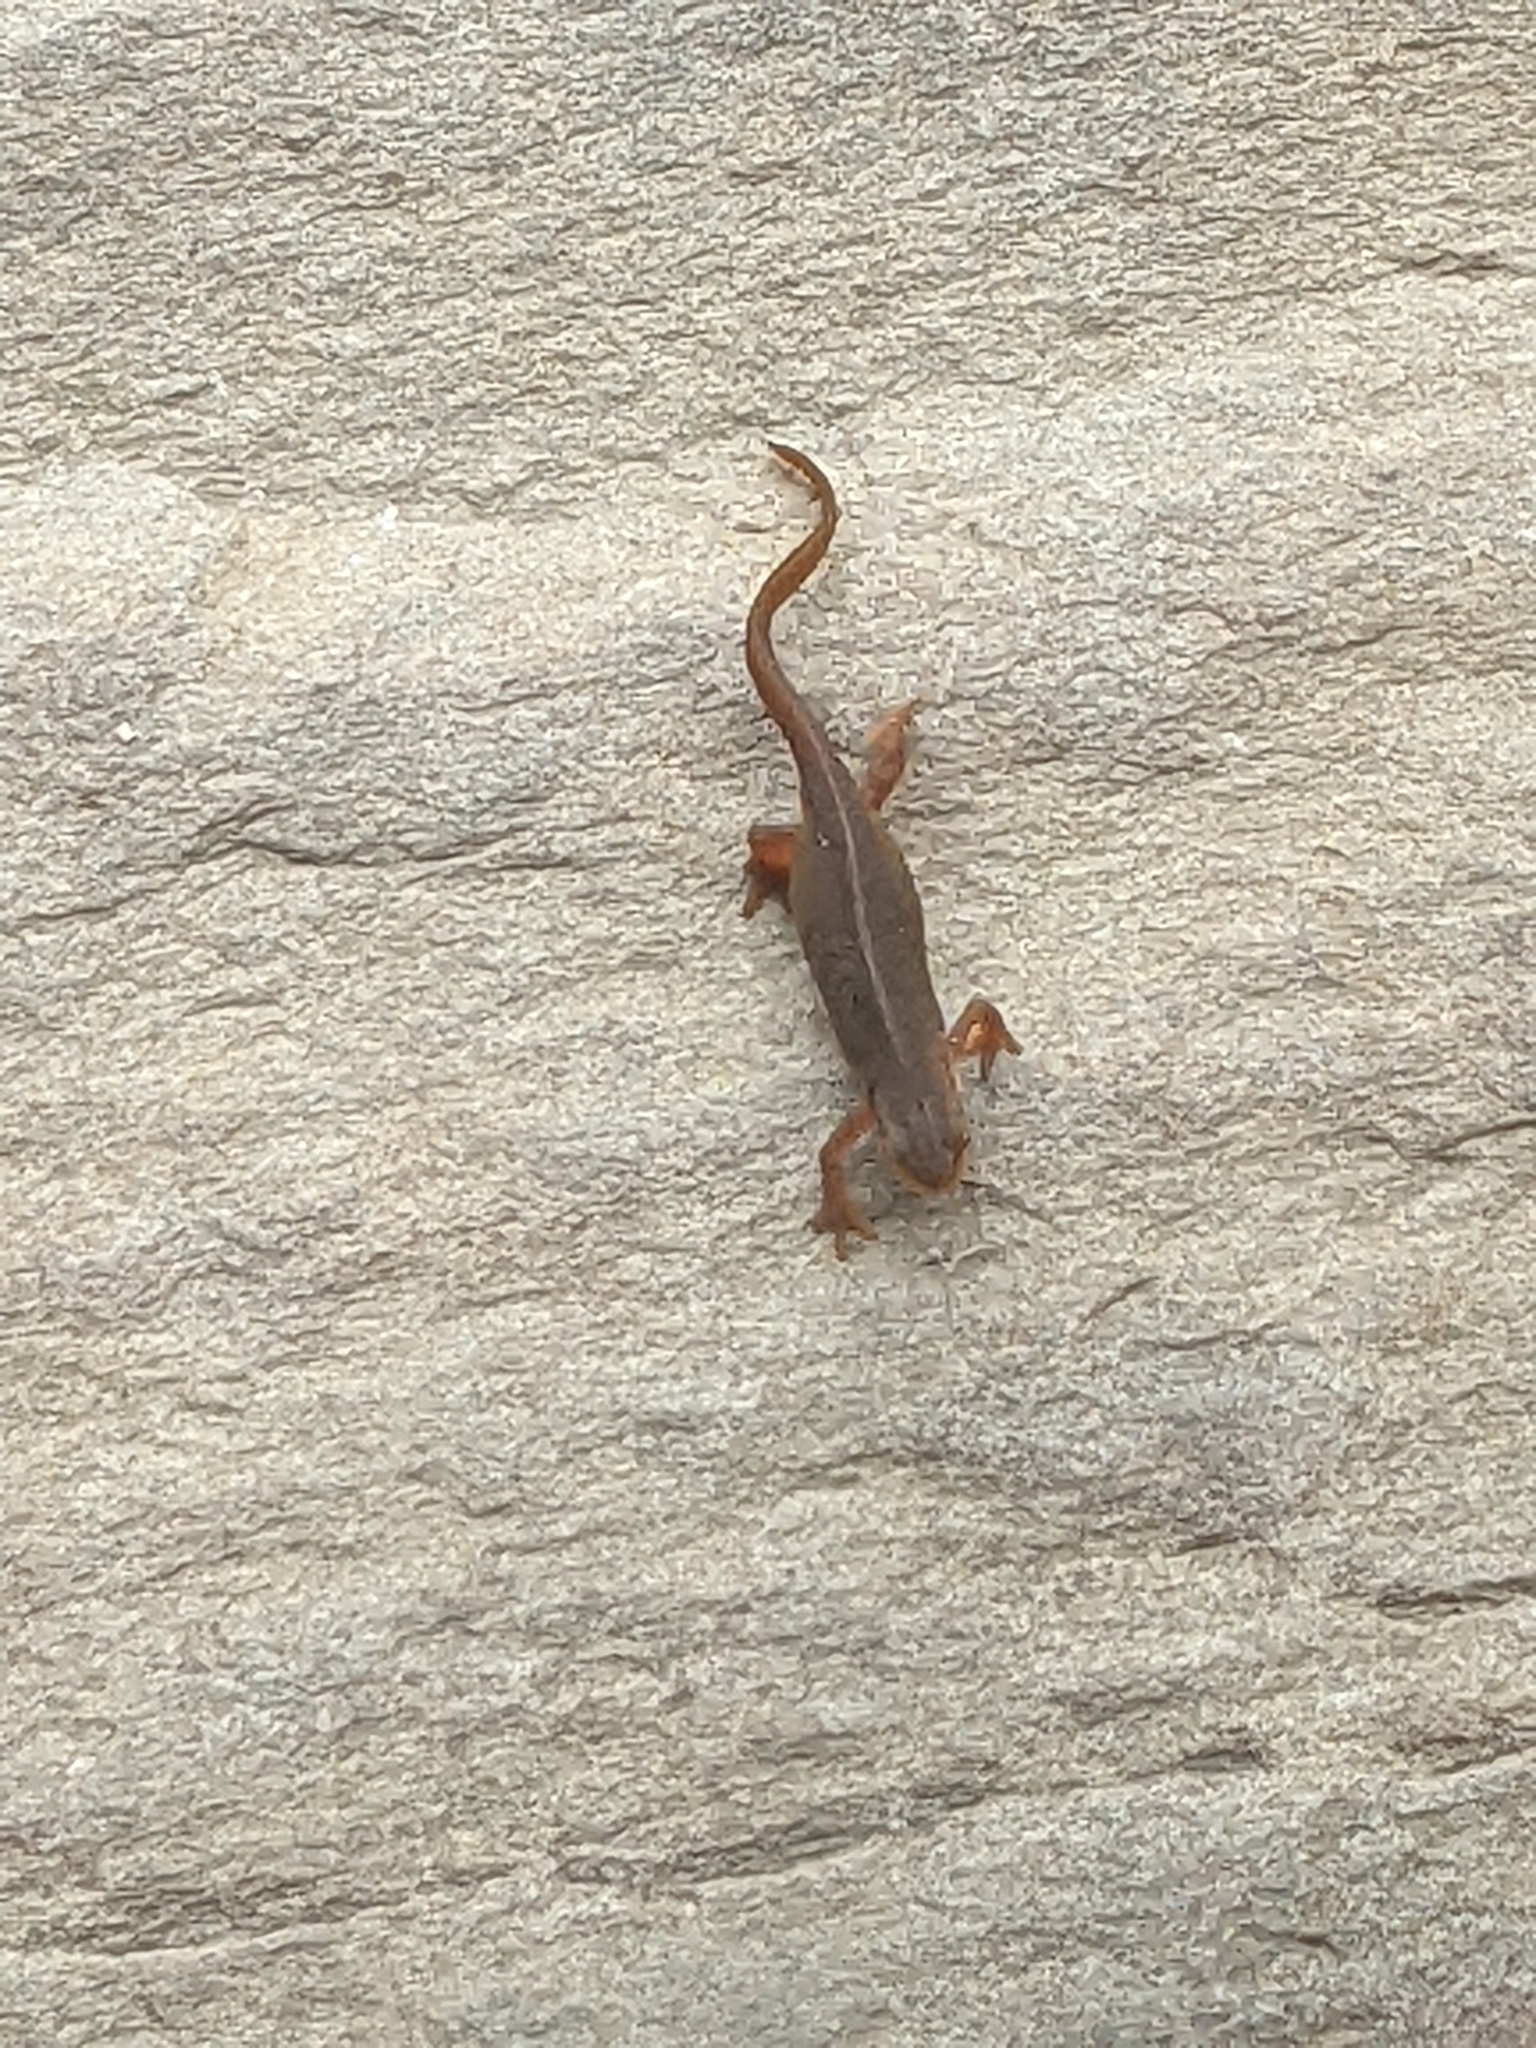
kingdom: Animalia
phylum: Chordata
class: Amphibia
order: Caudata
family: Salamandridae
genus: Notophthalmus
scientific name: Notophthalmus viridescens
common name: Eastern newt
